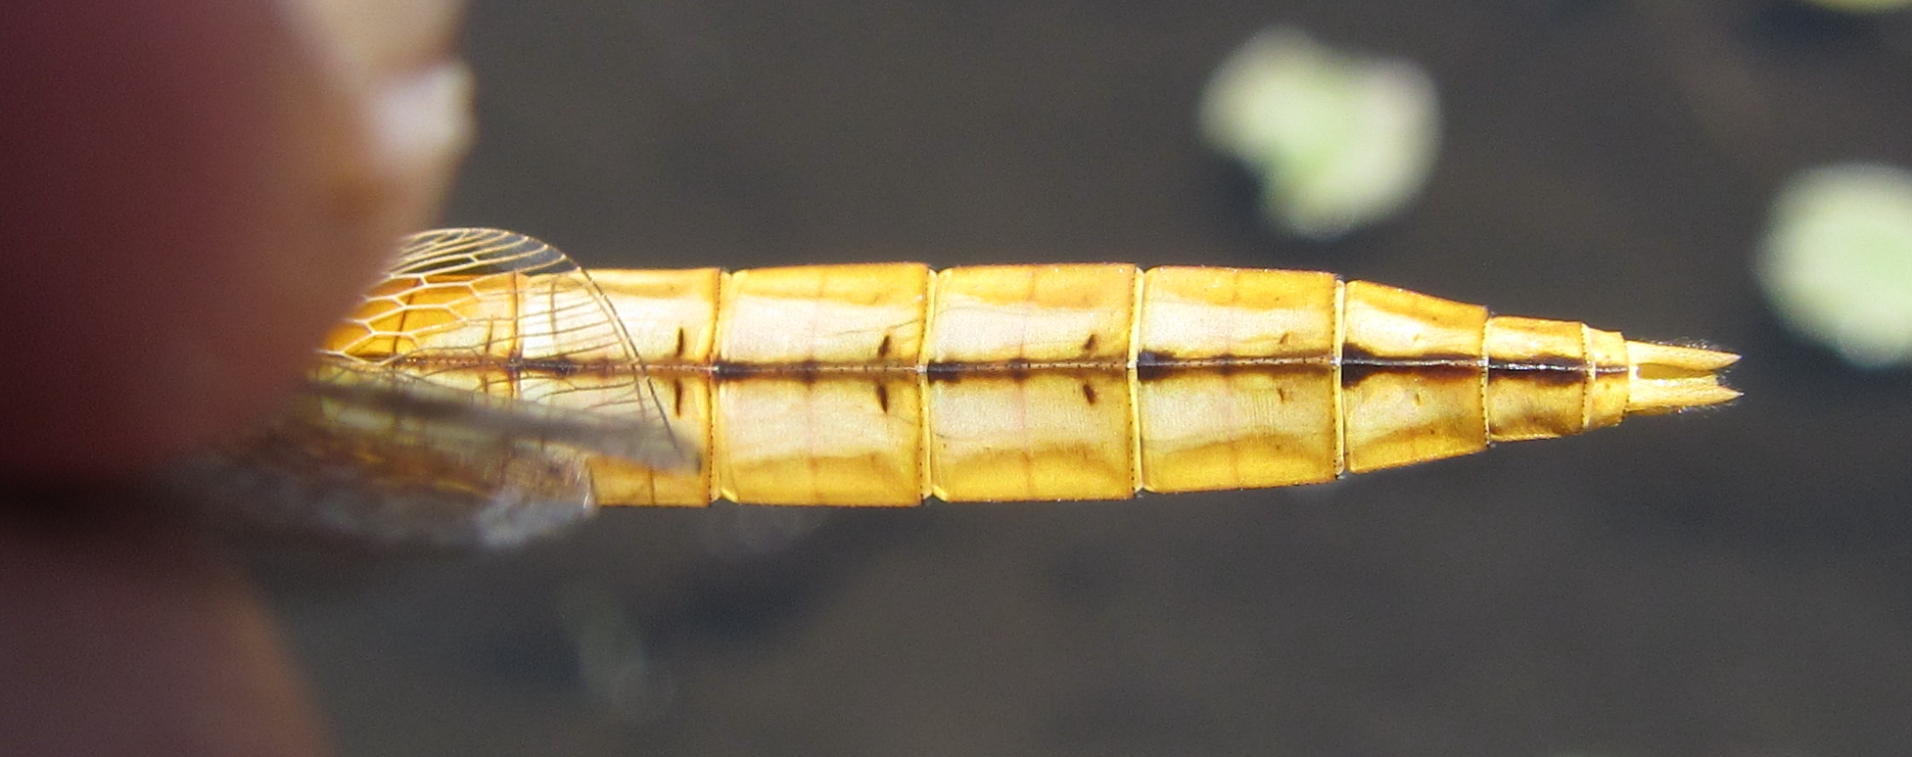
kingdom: Animalia
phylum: Arthropoda
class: Insecta
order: Odonata
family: Libellulidae
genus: Crocothemis
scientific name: Crocothemis erythraea
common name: Scarlet dragonfly
